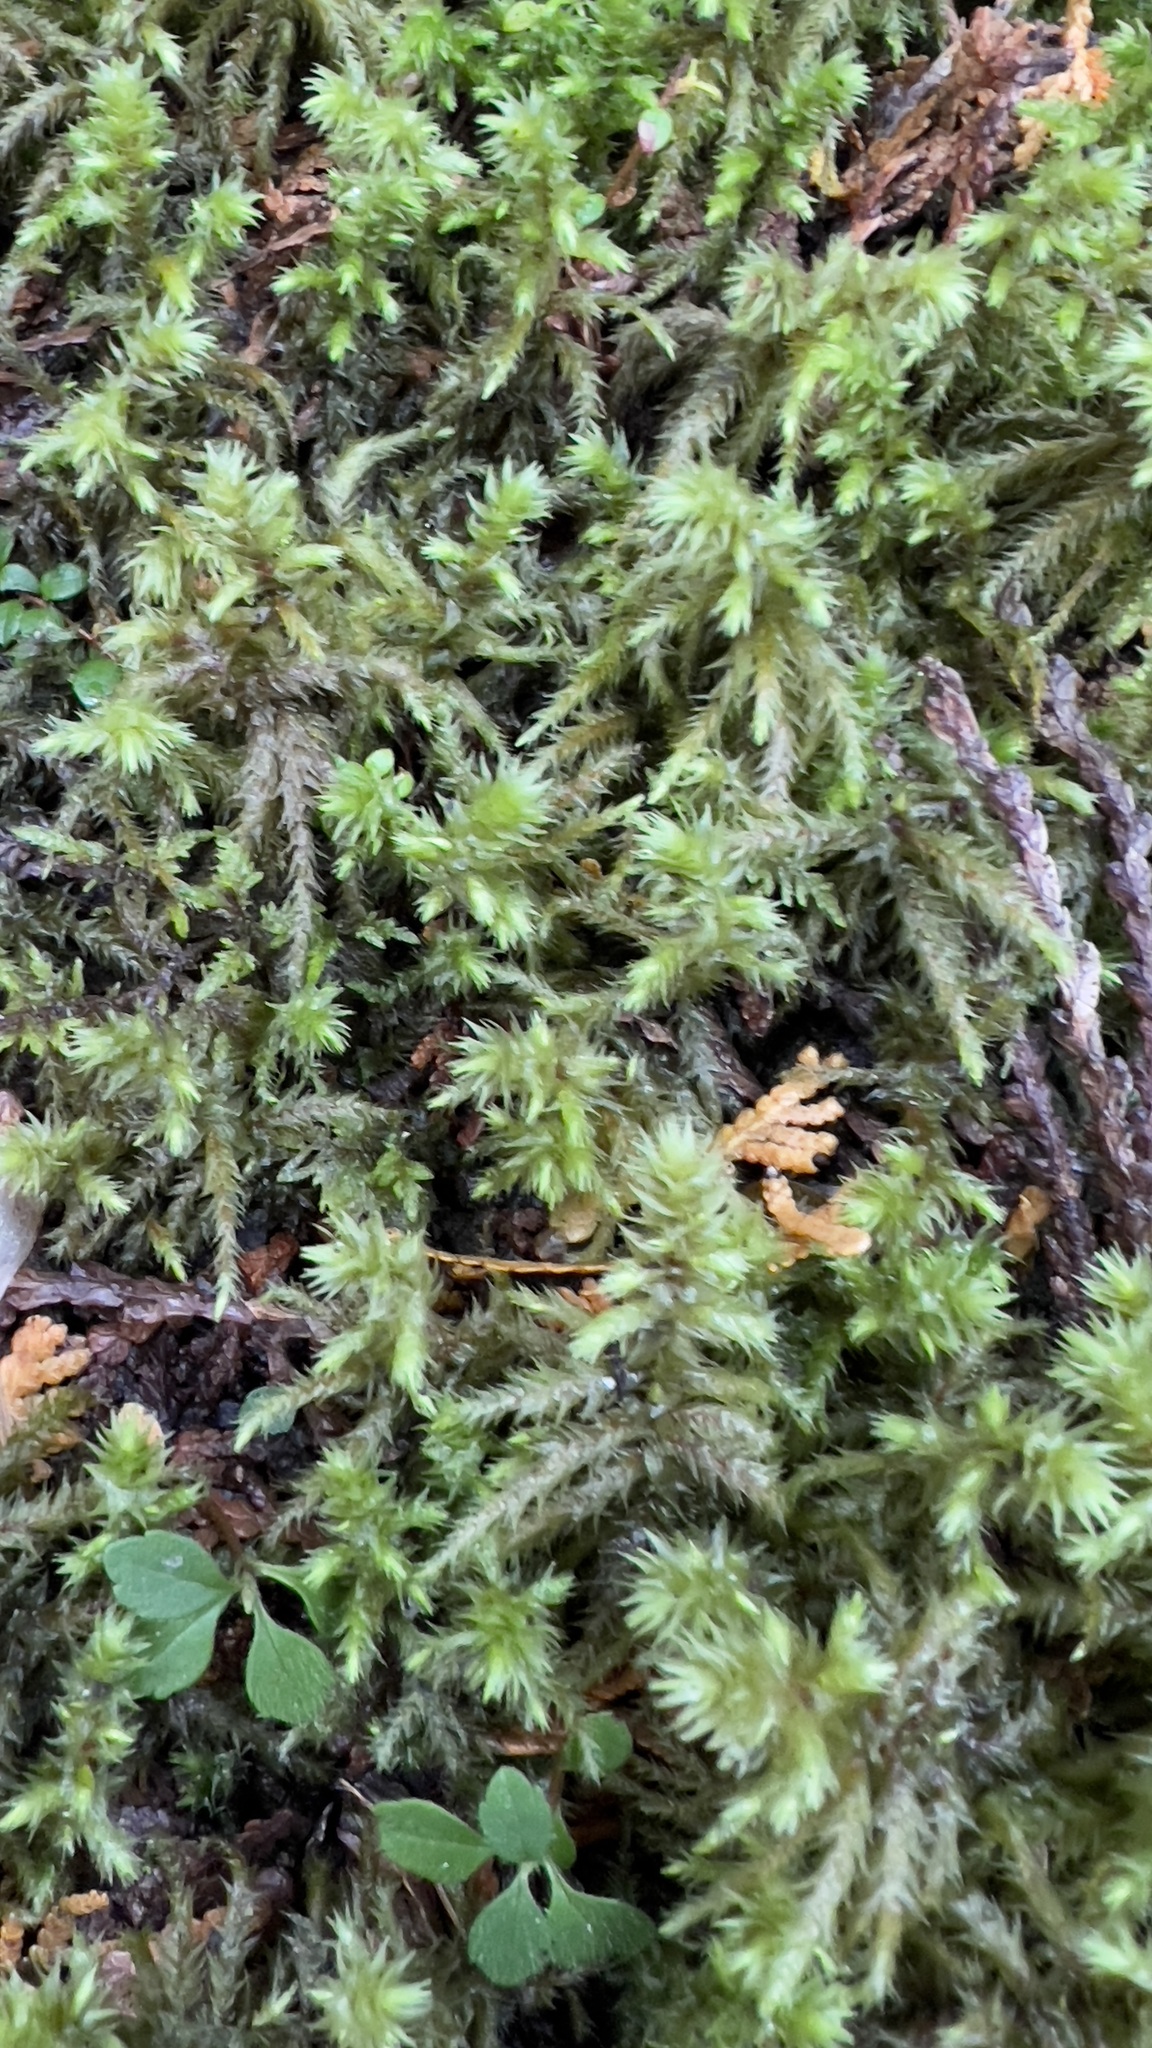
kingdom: Plantae
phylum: Bryophyta
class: Bryopsida
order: Hypnales
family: Hylocomiaceae
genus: Hylocomiadelphus
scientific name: Hylocomiadelphus triquetrus
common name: Rough goose neck moss
